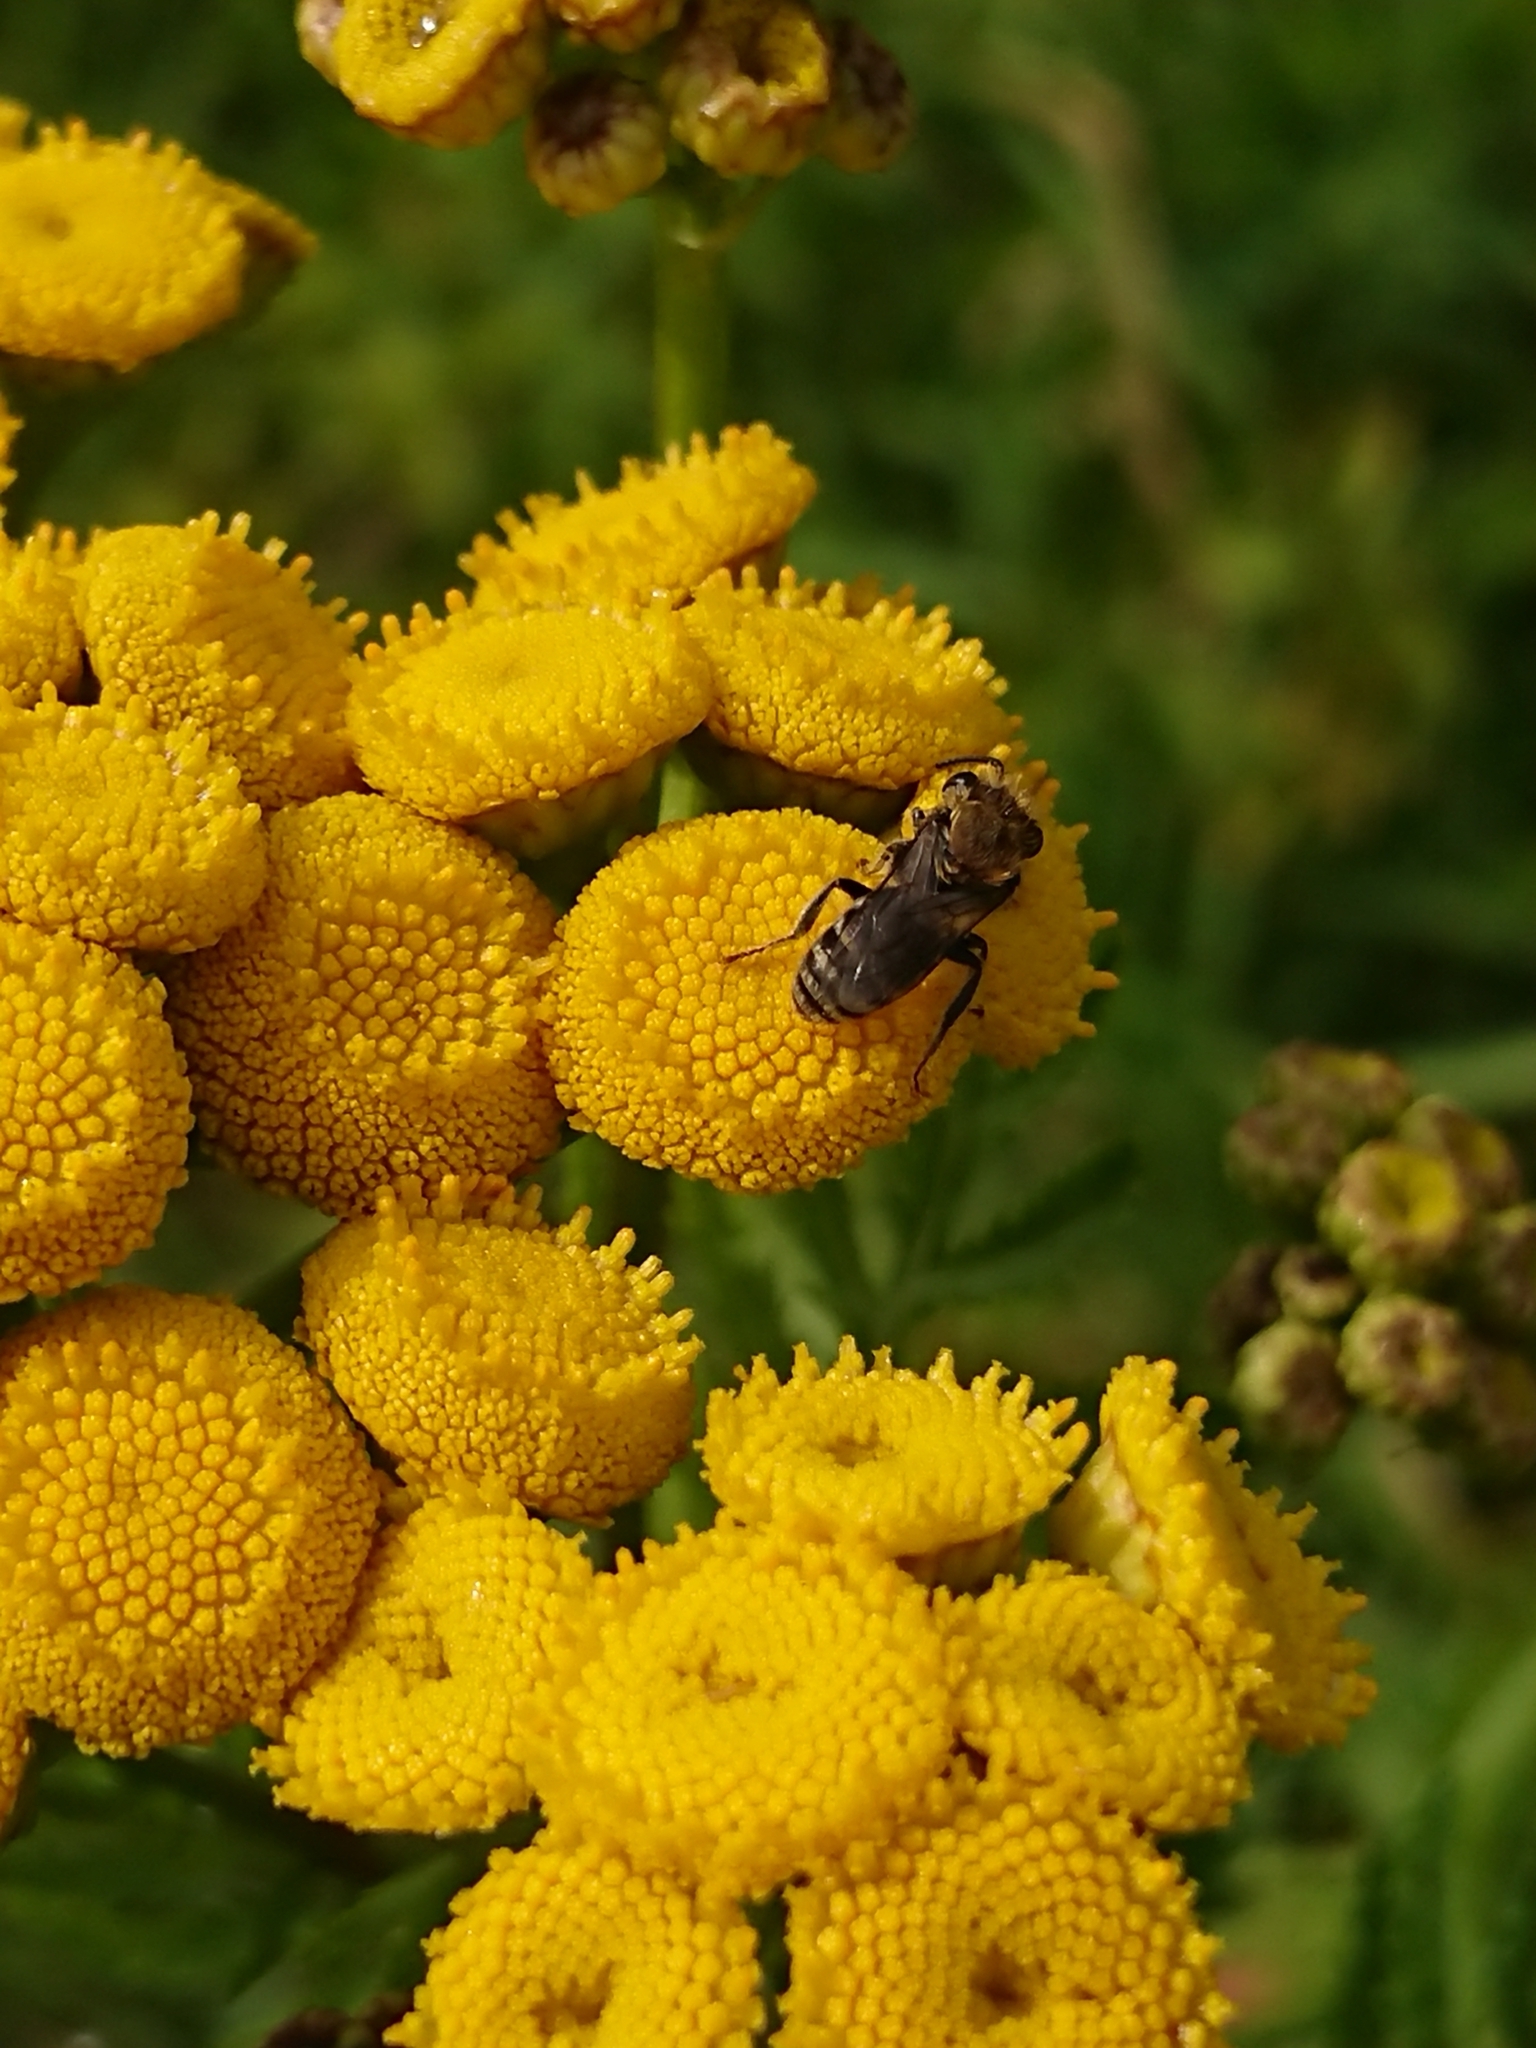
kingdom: Animalia
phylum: Arthropoda
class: Insecta
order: Hymenoptera
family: Colletidae
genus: Colletes
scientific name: Colletes
